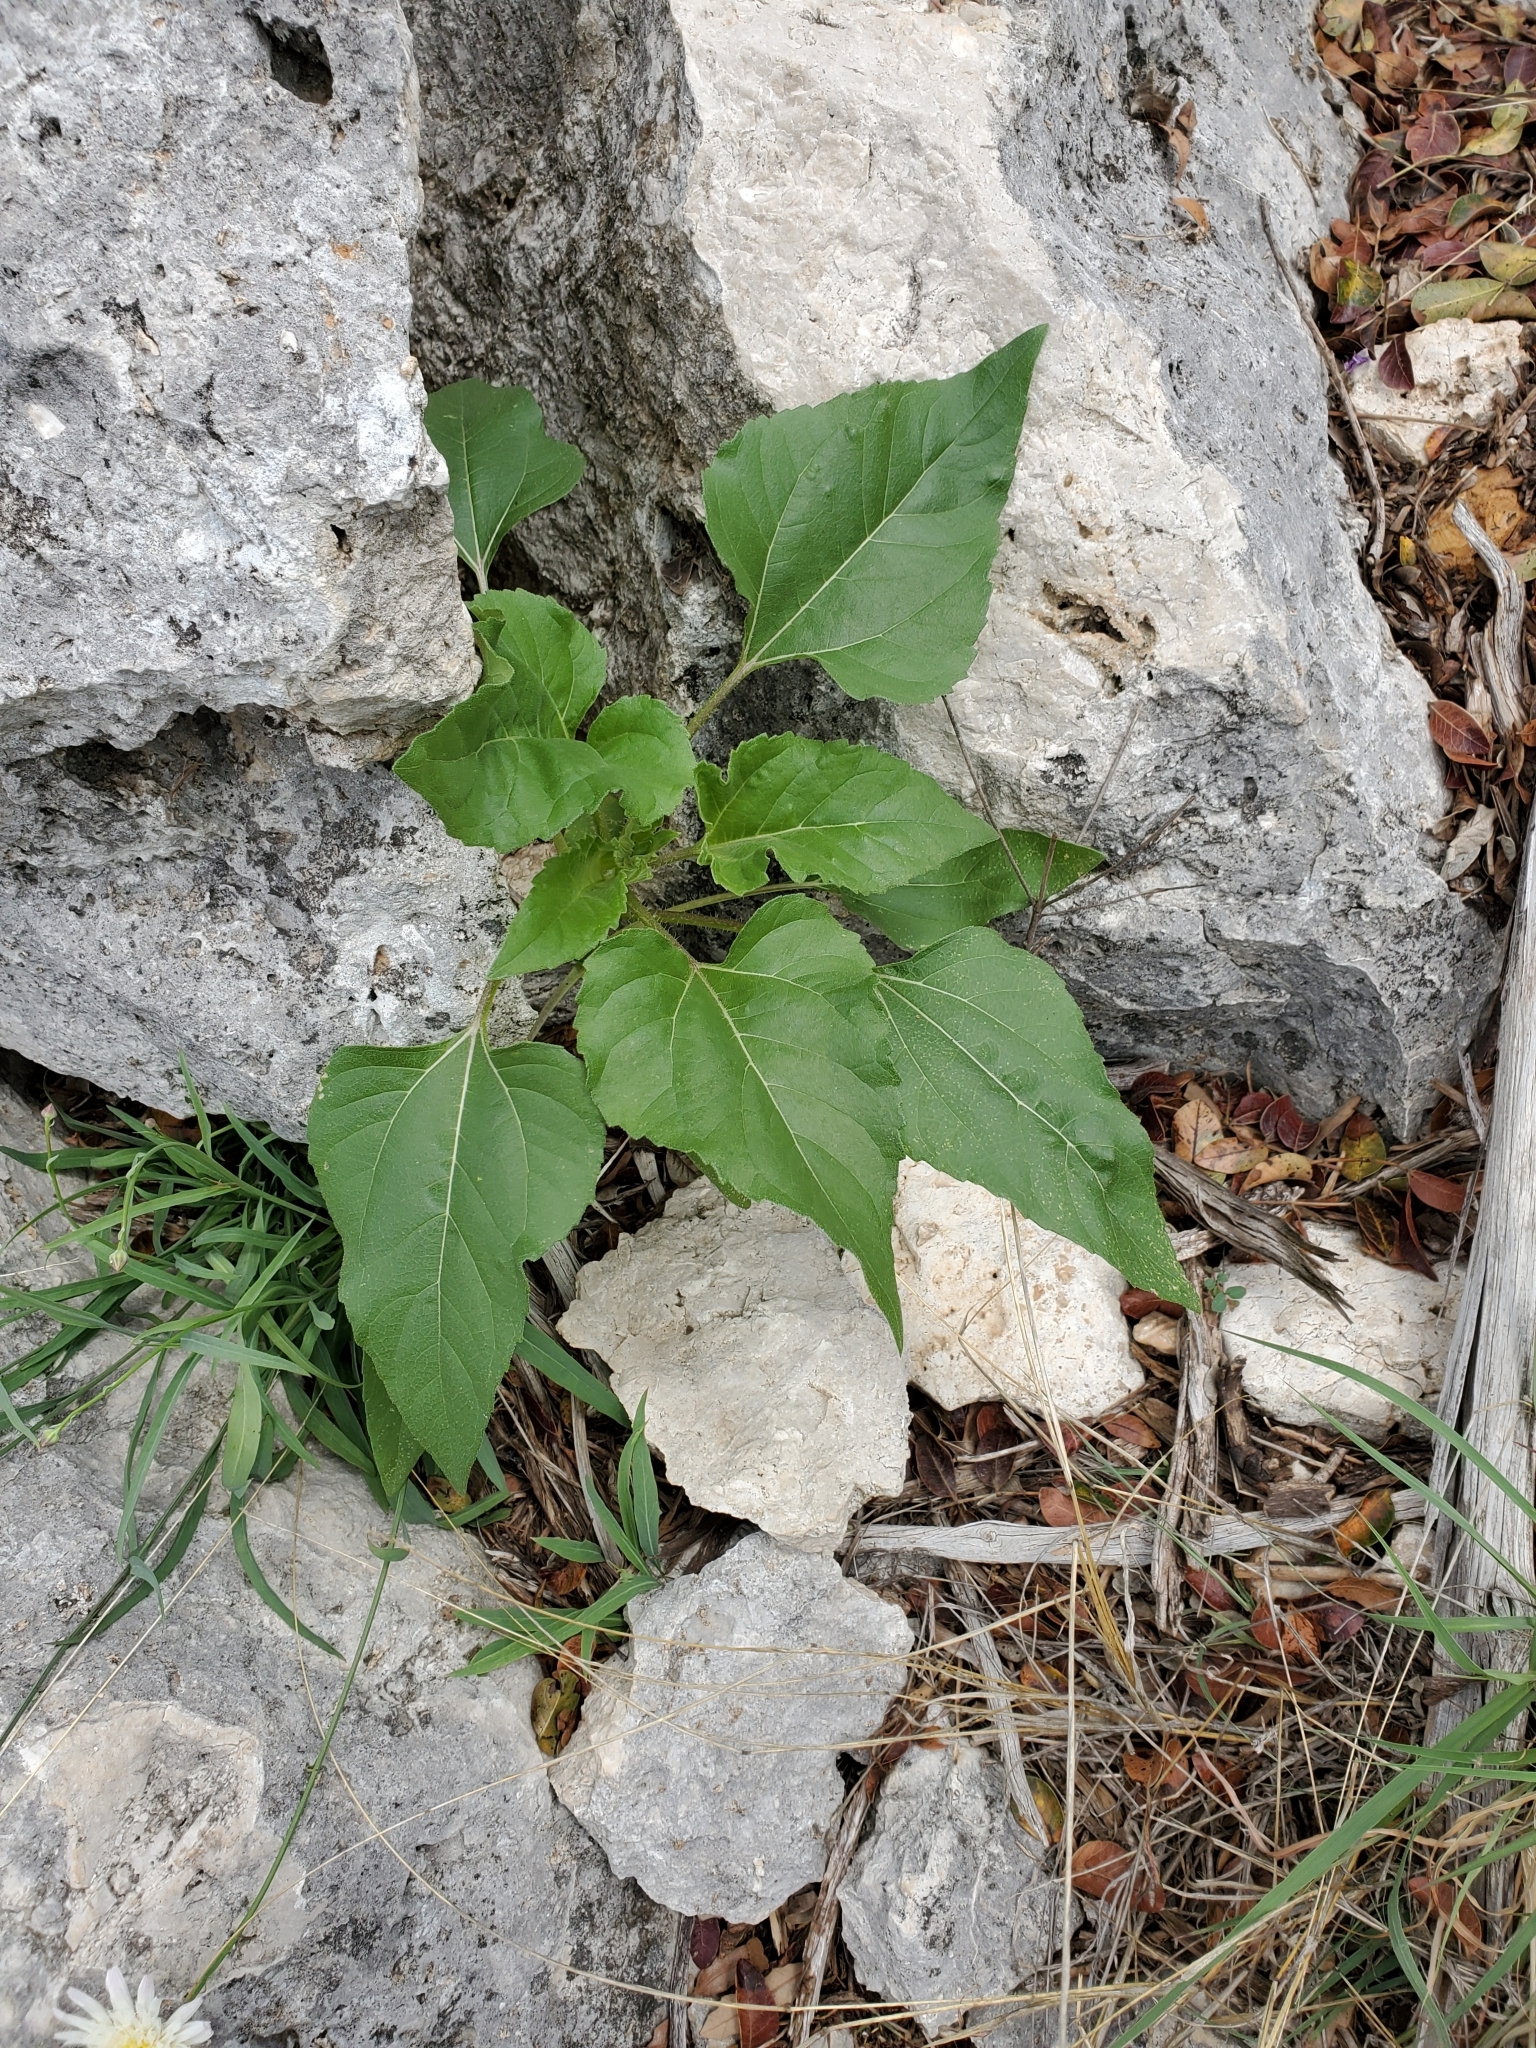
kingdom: Plantae
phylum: Tracheophyta
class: Magnoliopsida
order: Asterales
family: Asteraceae
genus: Helianthus
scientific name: Helianthus annuus
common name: Sunflower
